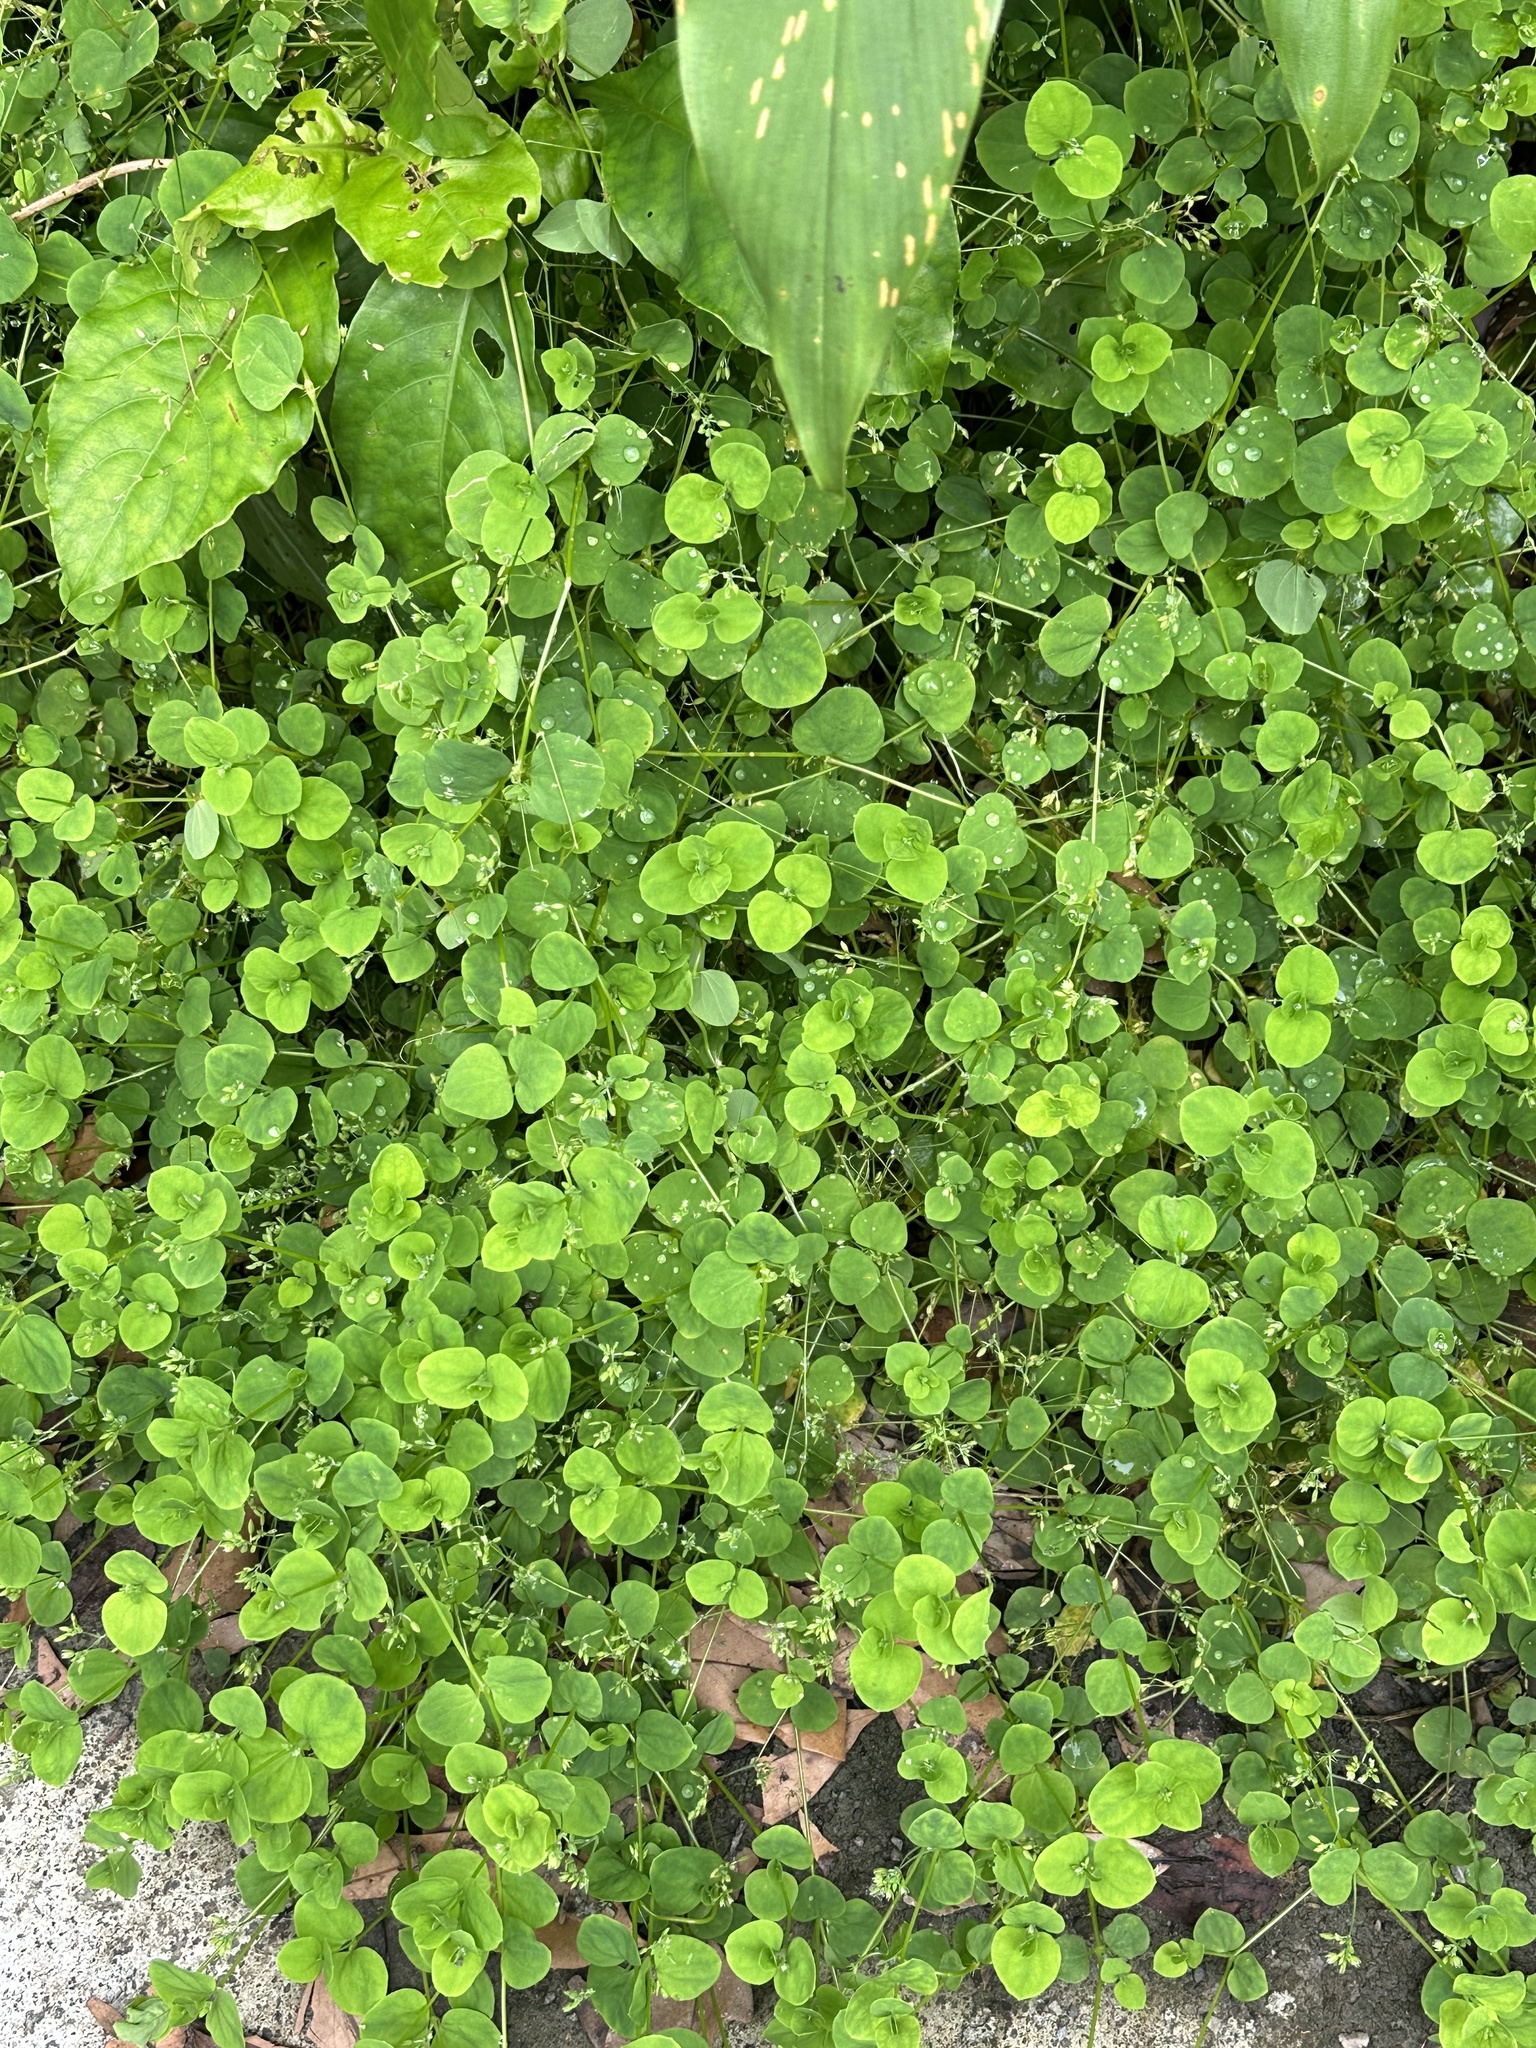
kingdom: Plantae
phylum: Tracheophyta
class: Magnoliopsida
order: Caryophyllales
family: Caryophyllaceae
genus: Drymaria
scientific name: Drymaria cordata
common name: Whitesnow
